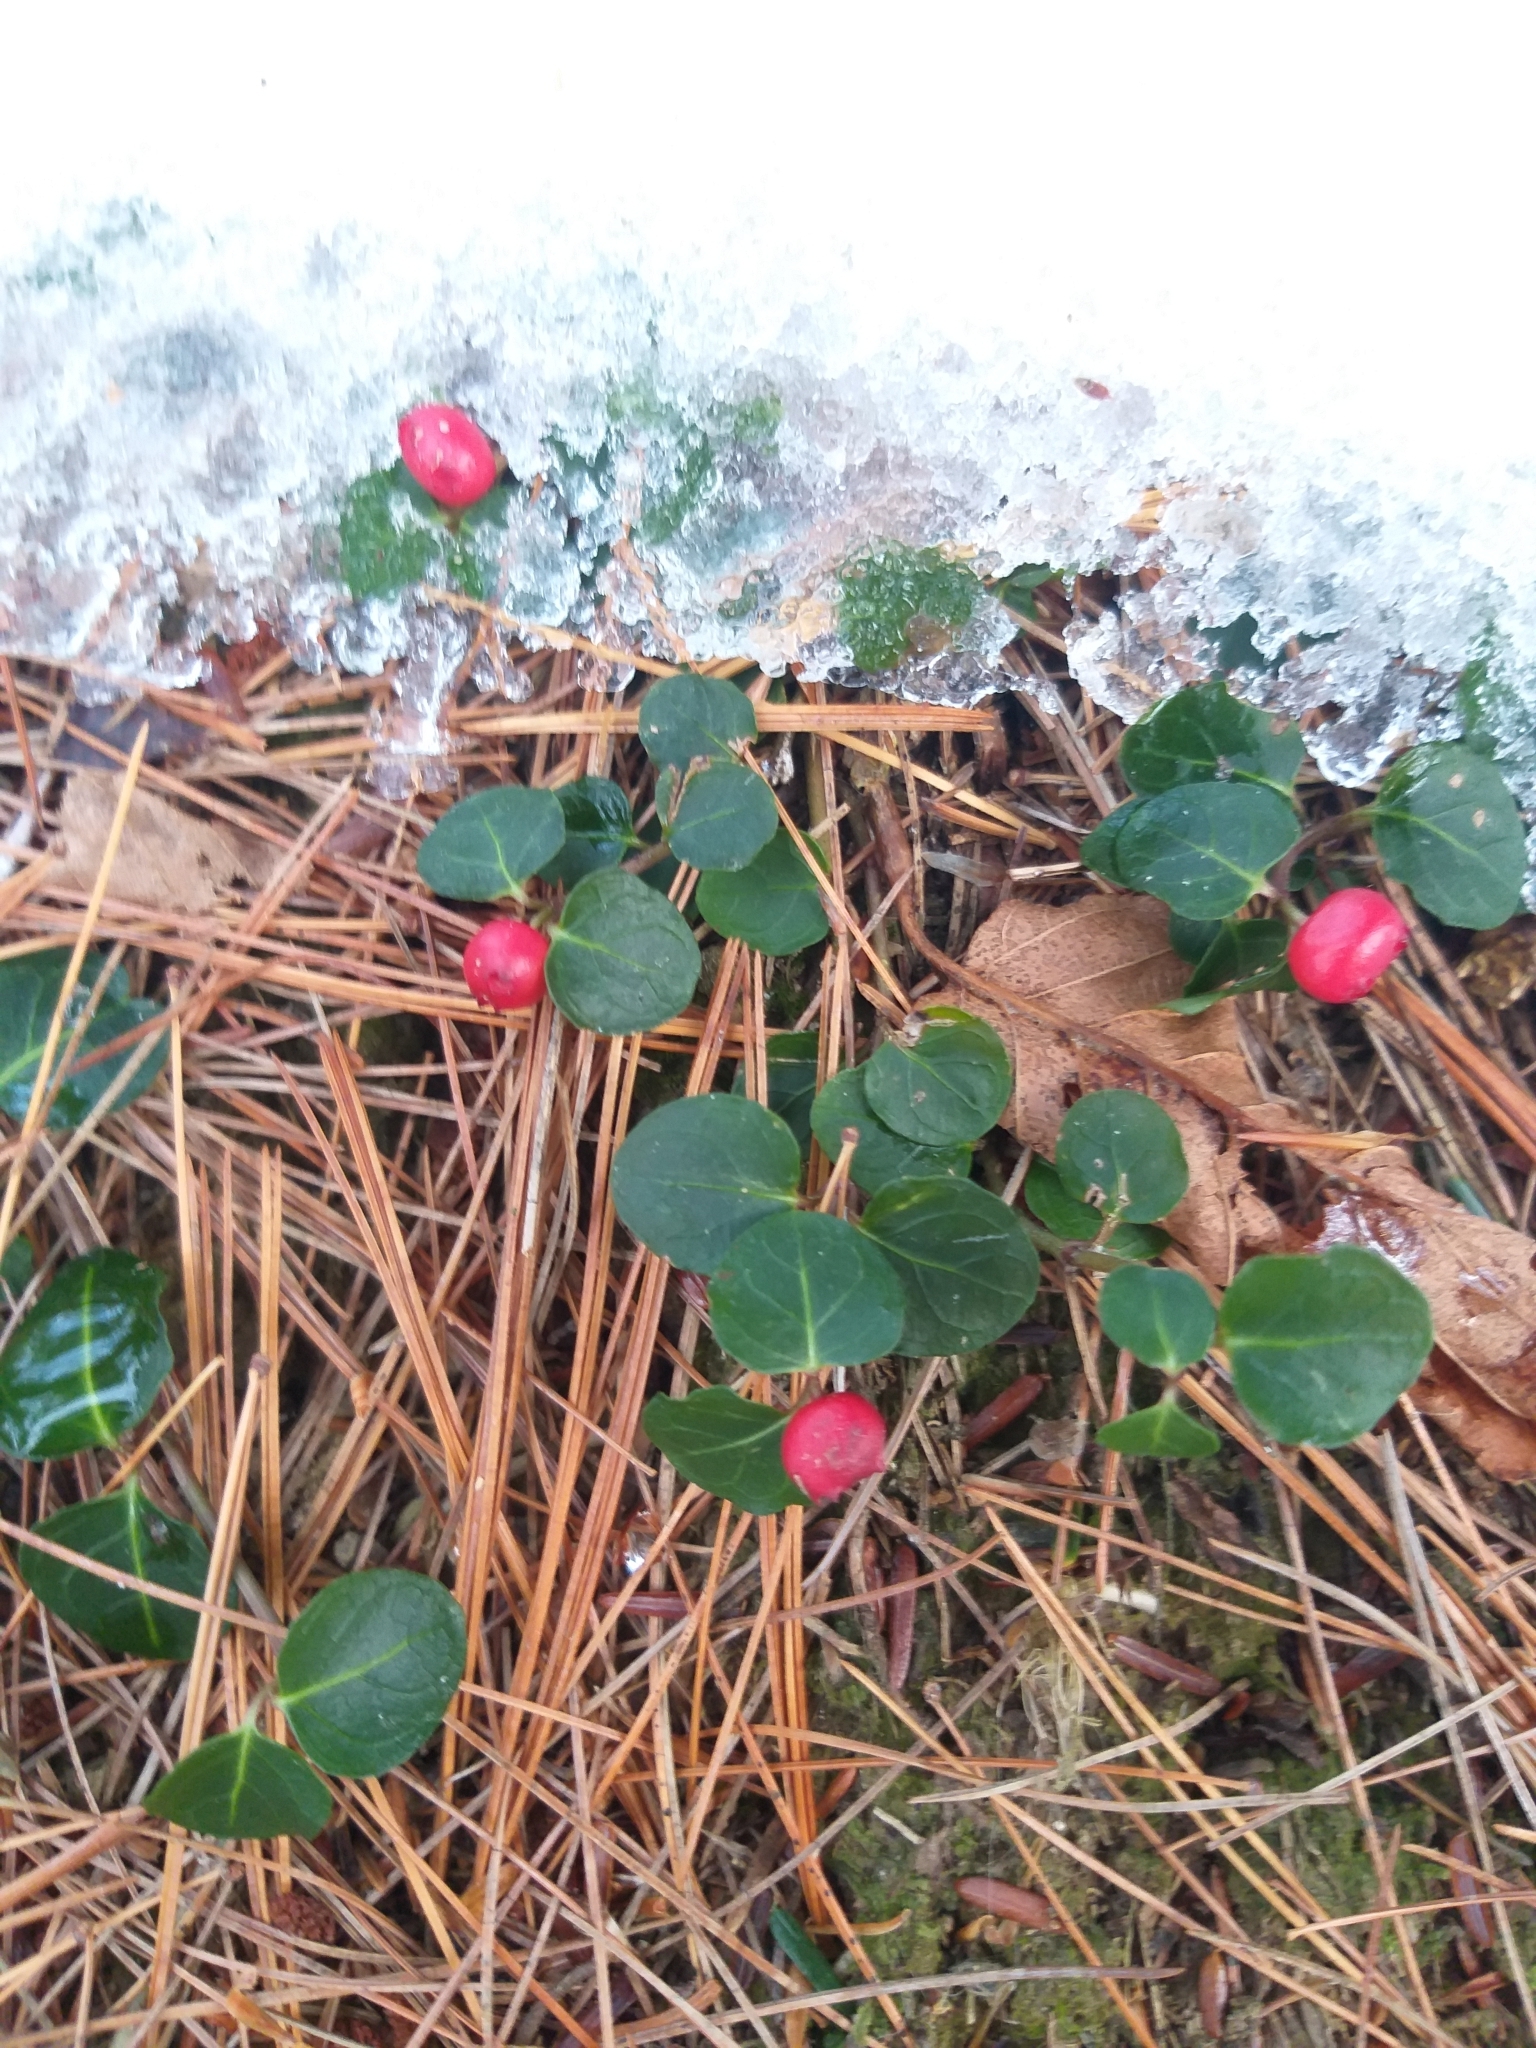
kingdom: Plantae
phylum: Tracheophyta
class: Magnoliopsida
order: Gentianales
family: Rubiaceae
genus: Mitchella
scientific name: Mitchella repens
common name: Partridge-berry
